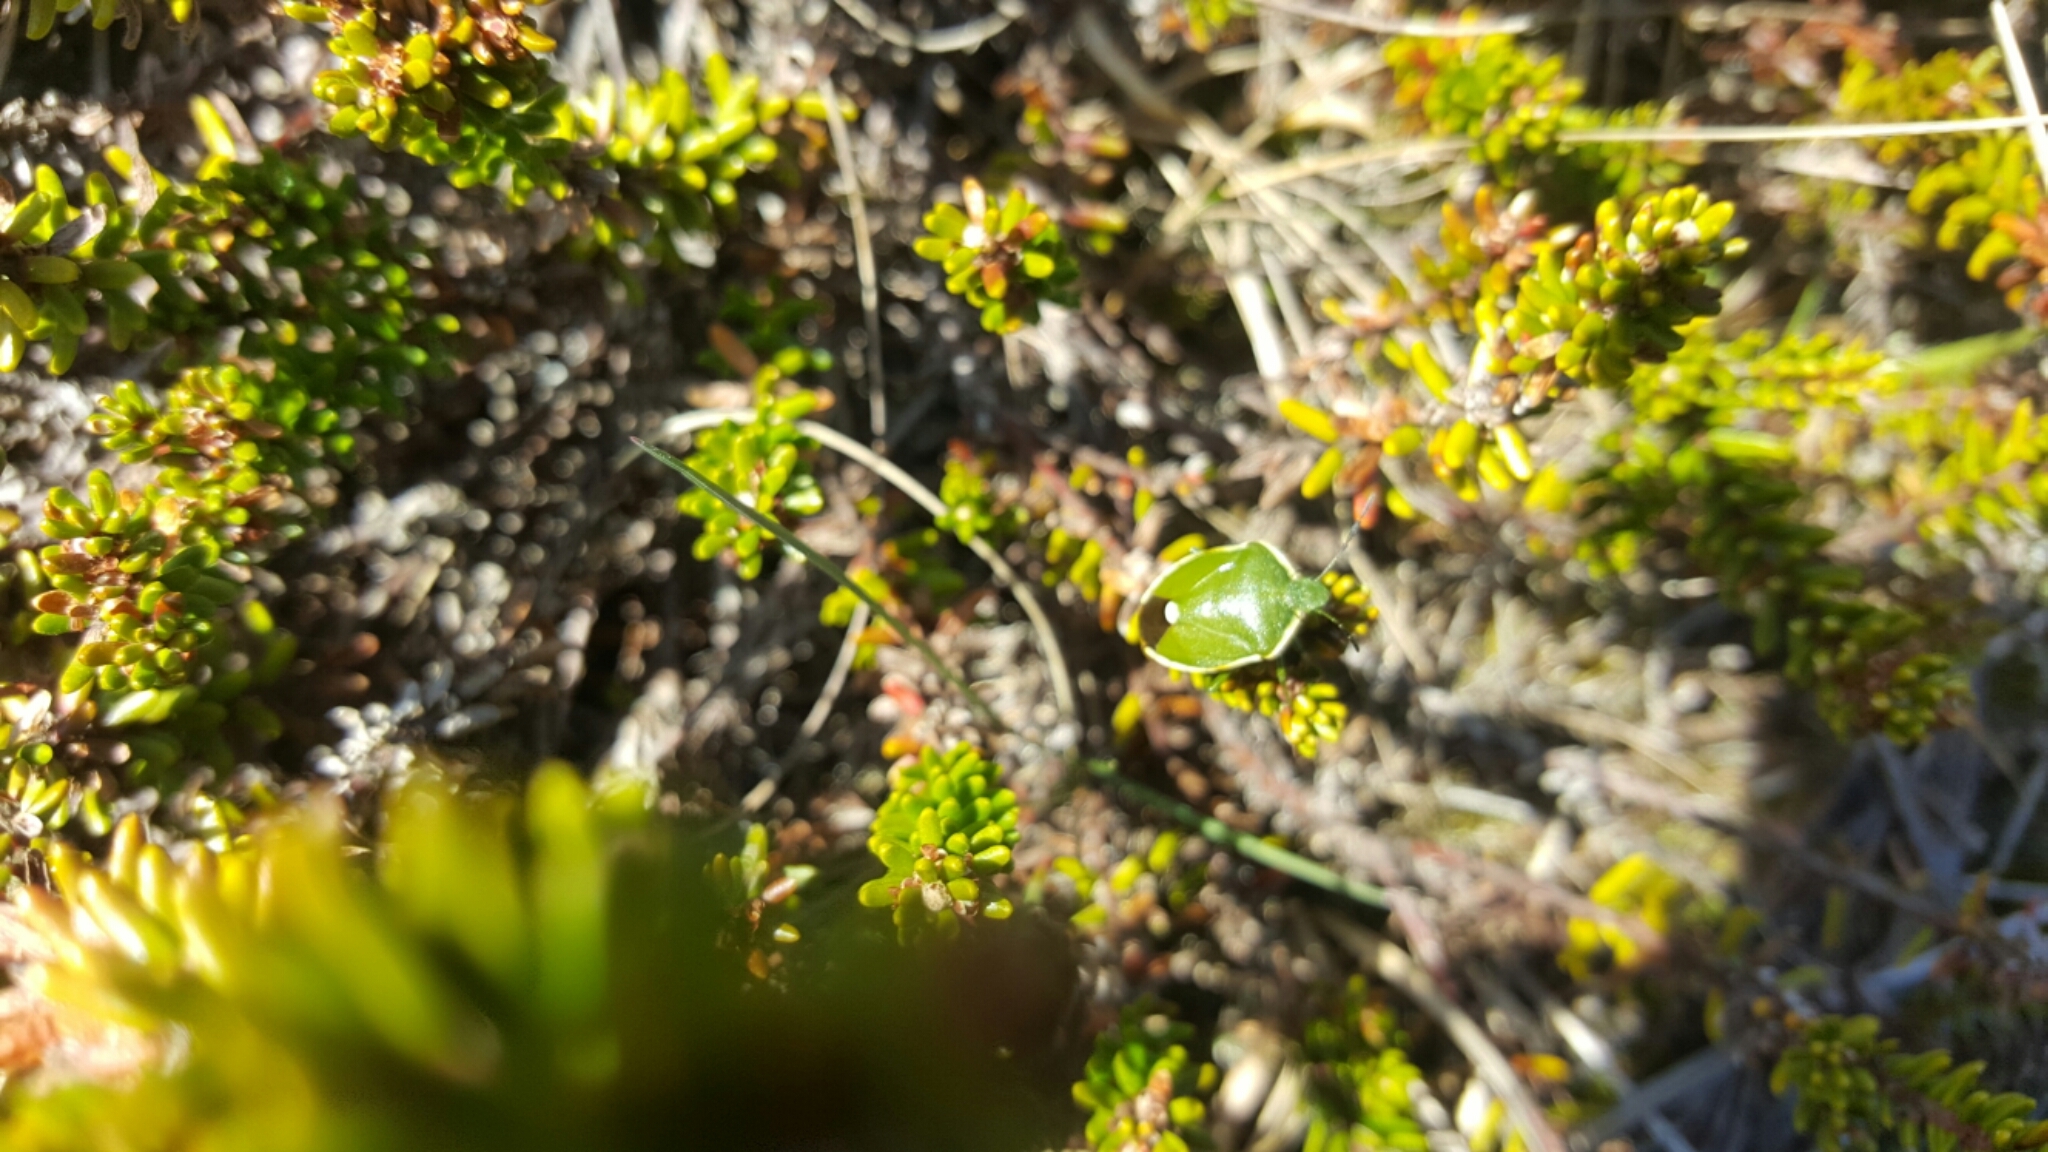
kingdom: Animalia
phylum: Arthropoda
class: Insecta
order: Hemiptera
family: Pentatomidae
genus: Chlorochroa
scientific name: Chlorochroa juniperina
